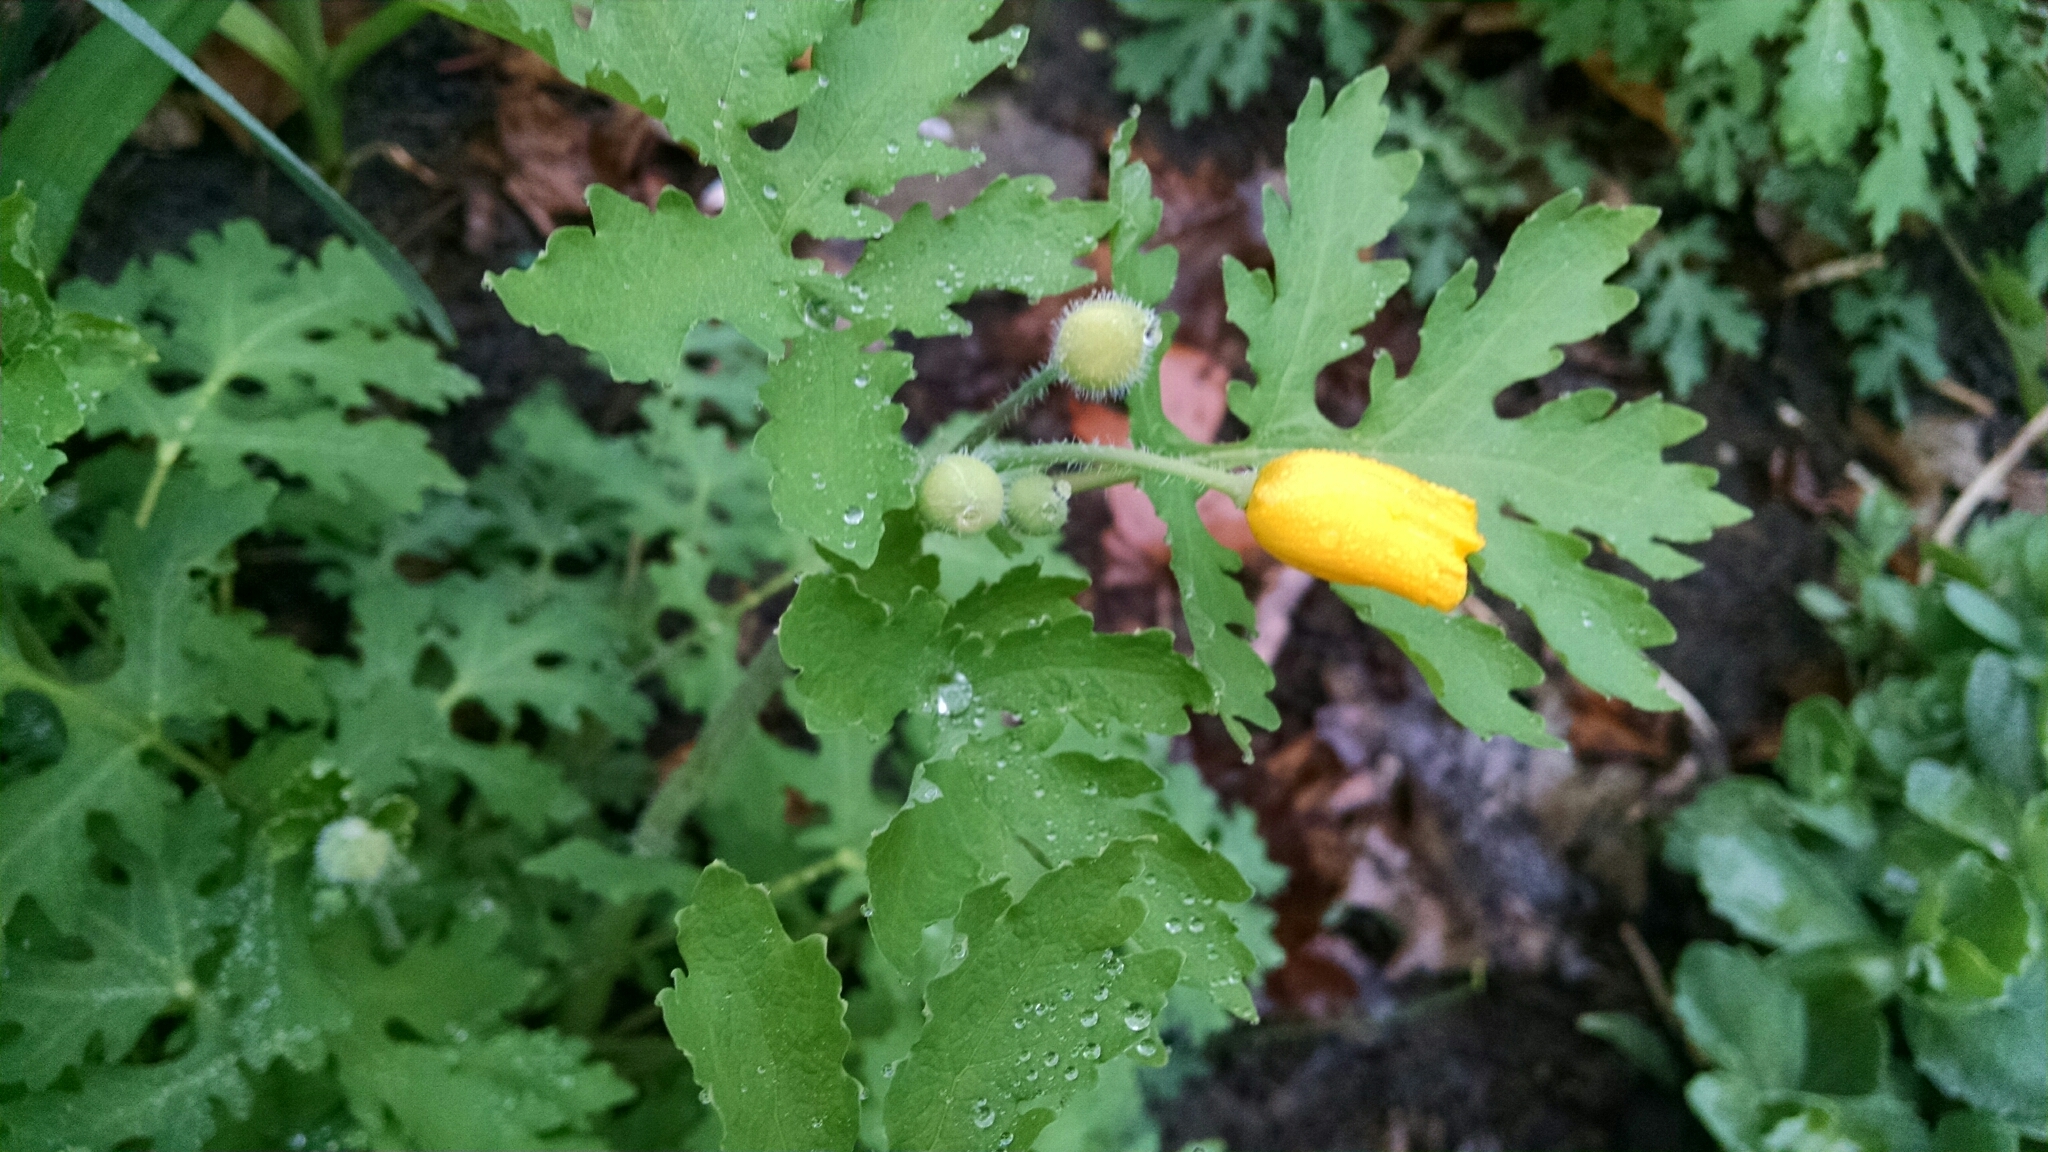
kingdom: Plantae
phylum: Tracheophyta
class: Magnoliopsida
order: Ranunculales
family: Papaveraceae
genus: Stylophorum
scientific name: Stylophorum diphyllum
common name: Celandine poppy
